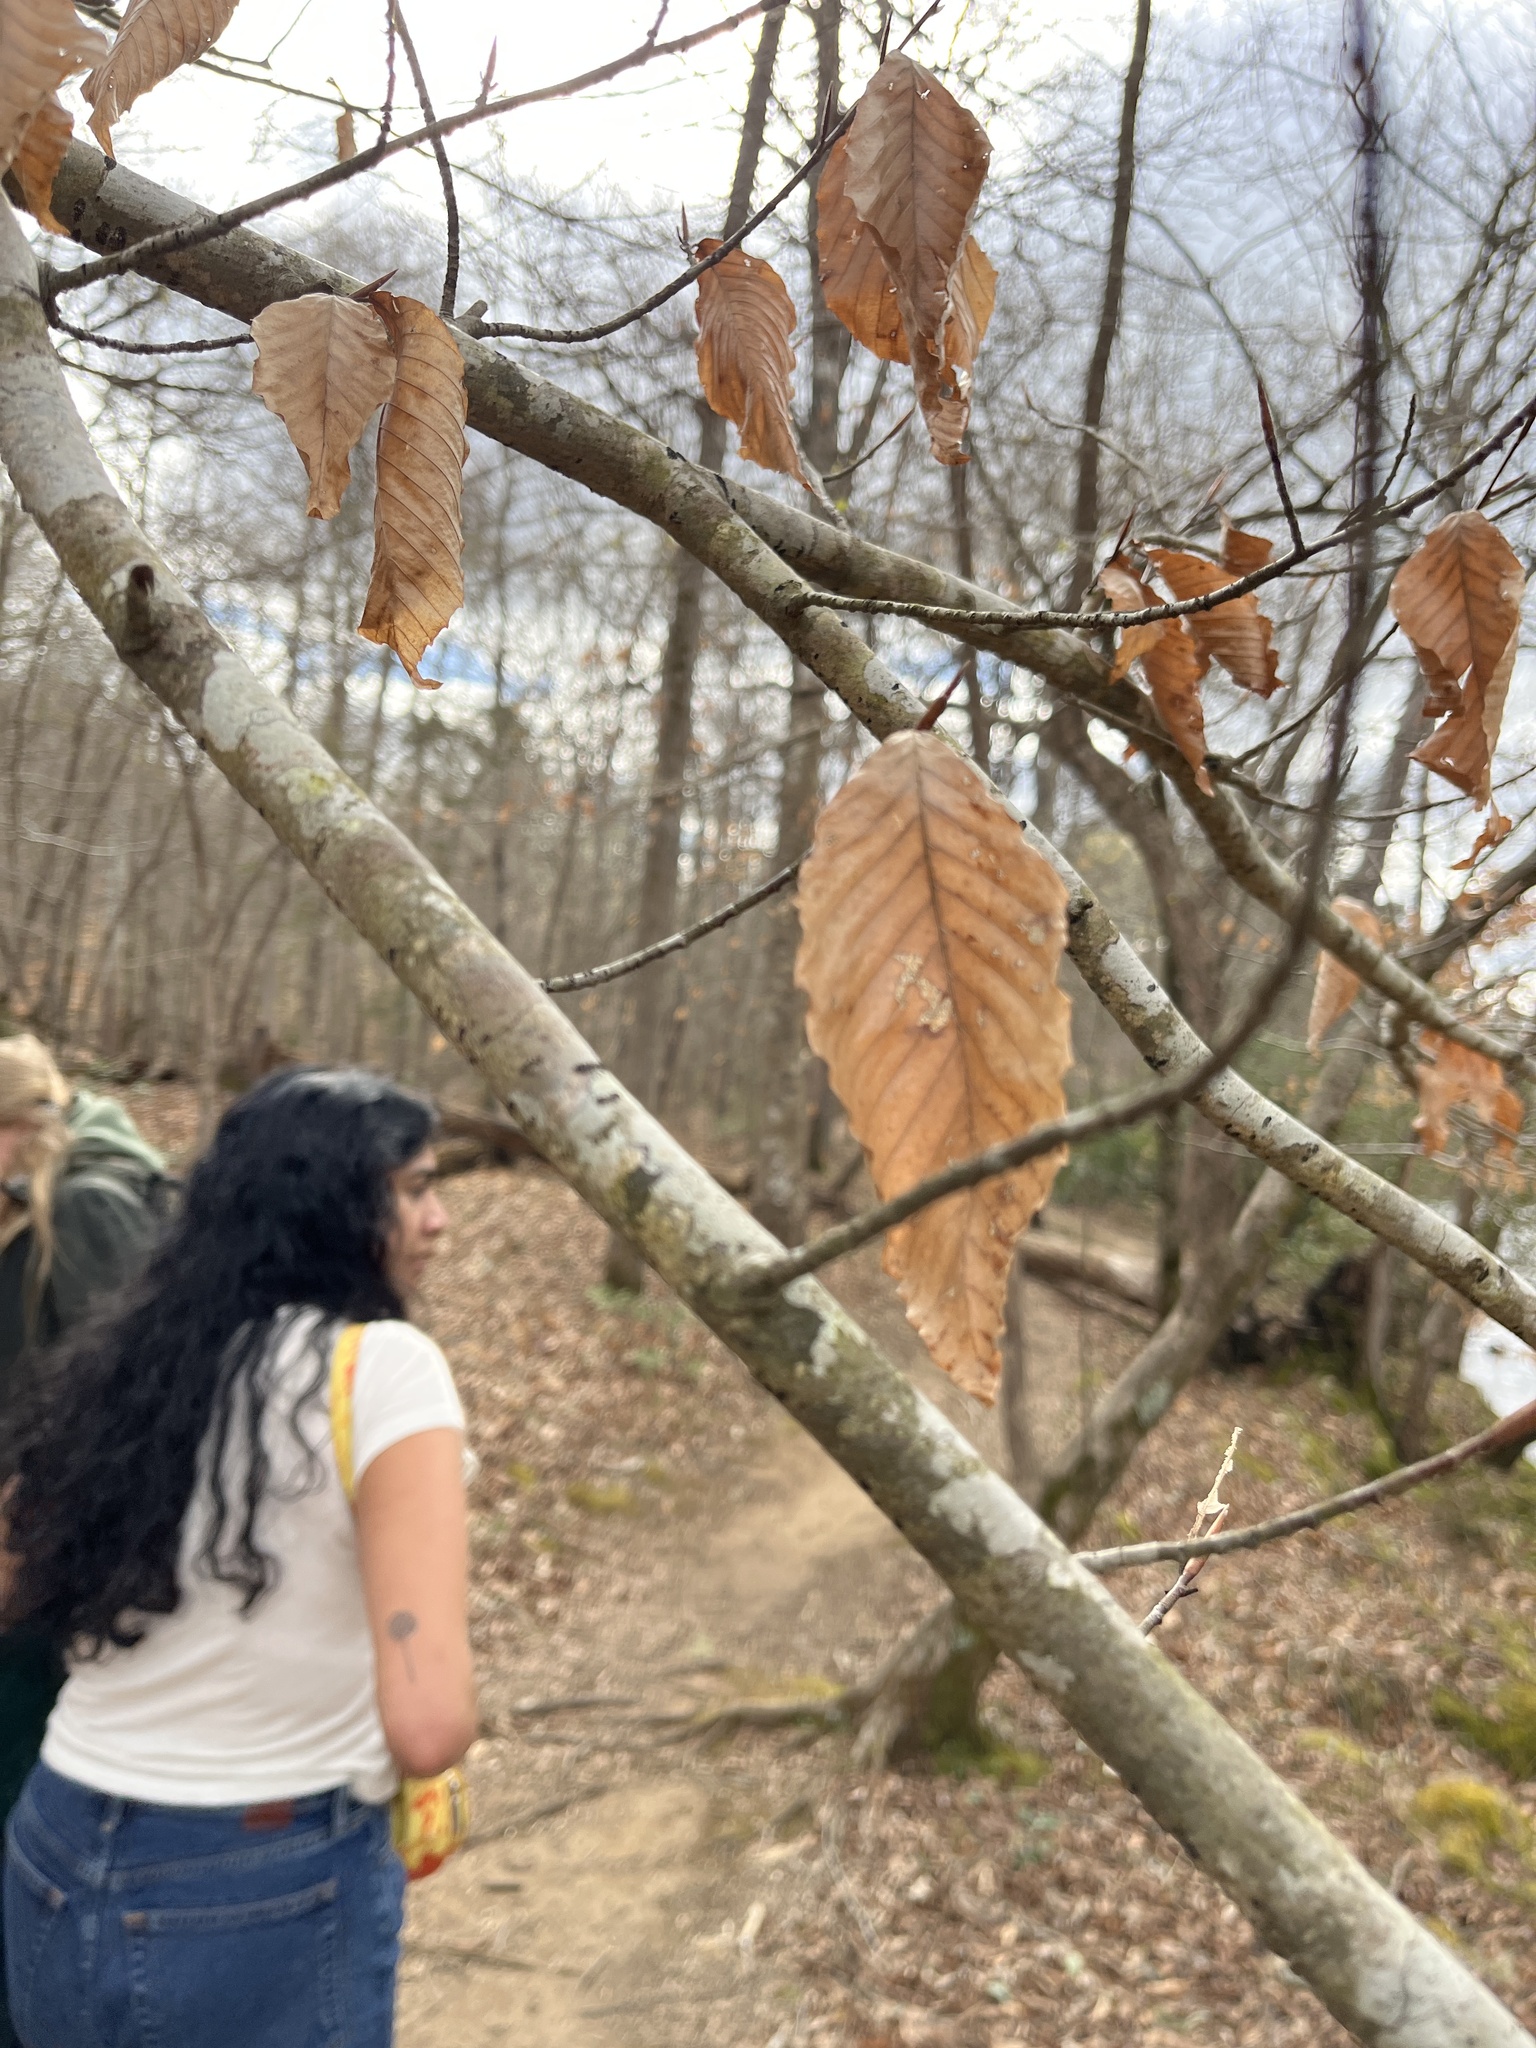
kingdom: Plantae
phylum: Tracheophyta
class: Magnoliopsida
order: Fagales
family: Fagaceae
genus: Fagus
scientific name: Fagus grandifolia
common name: American beech
